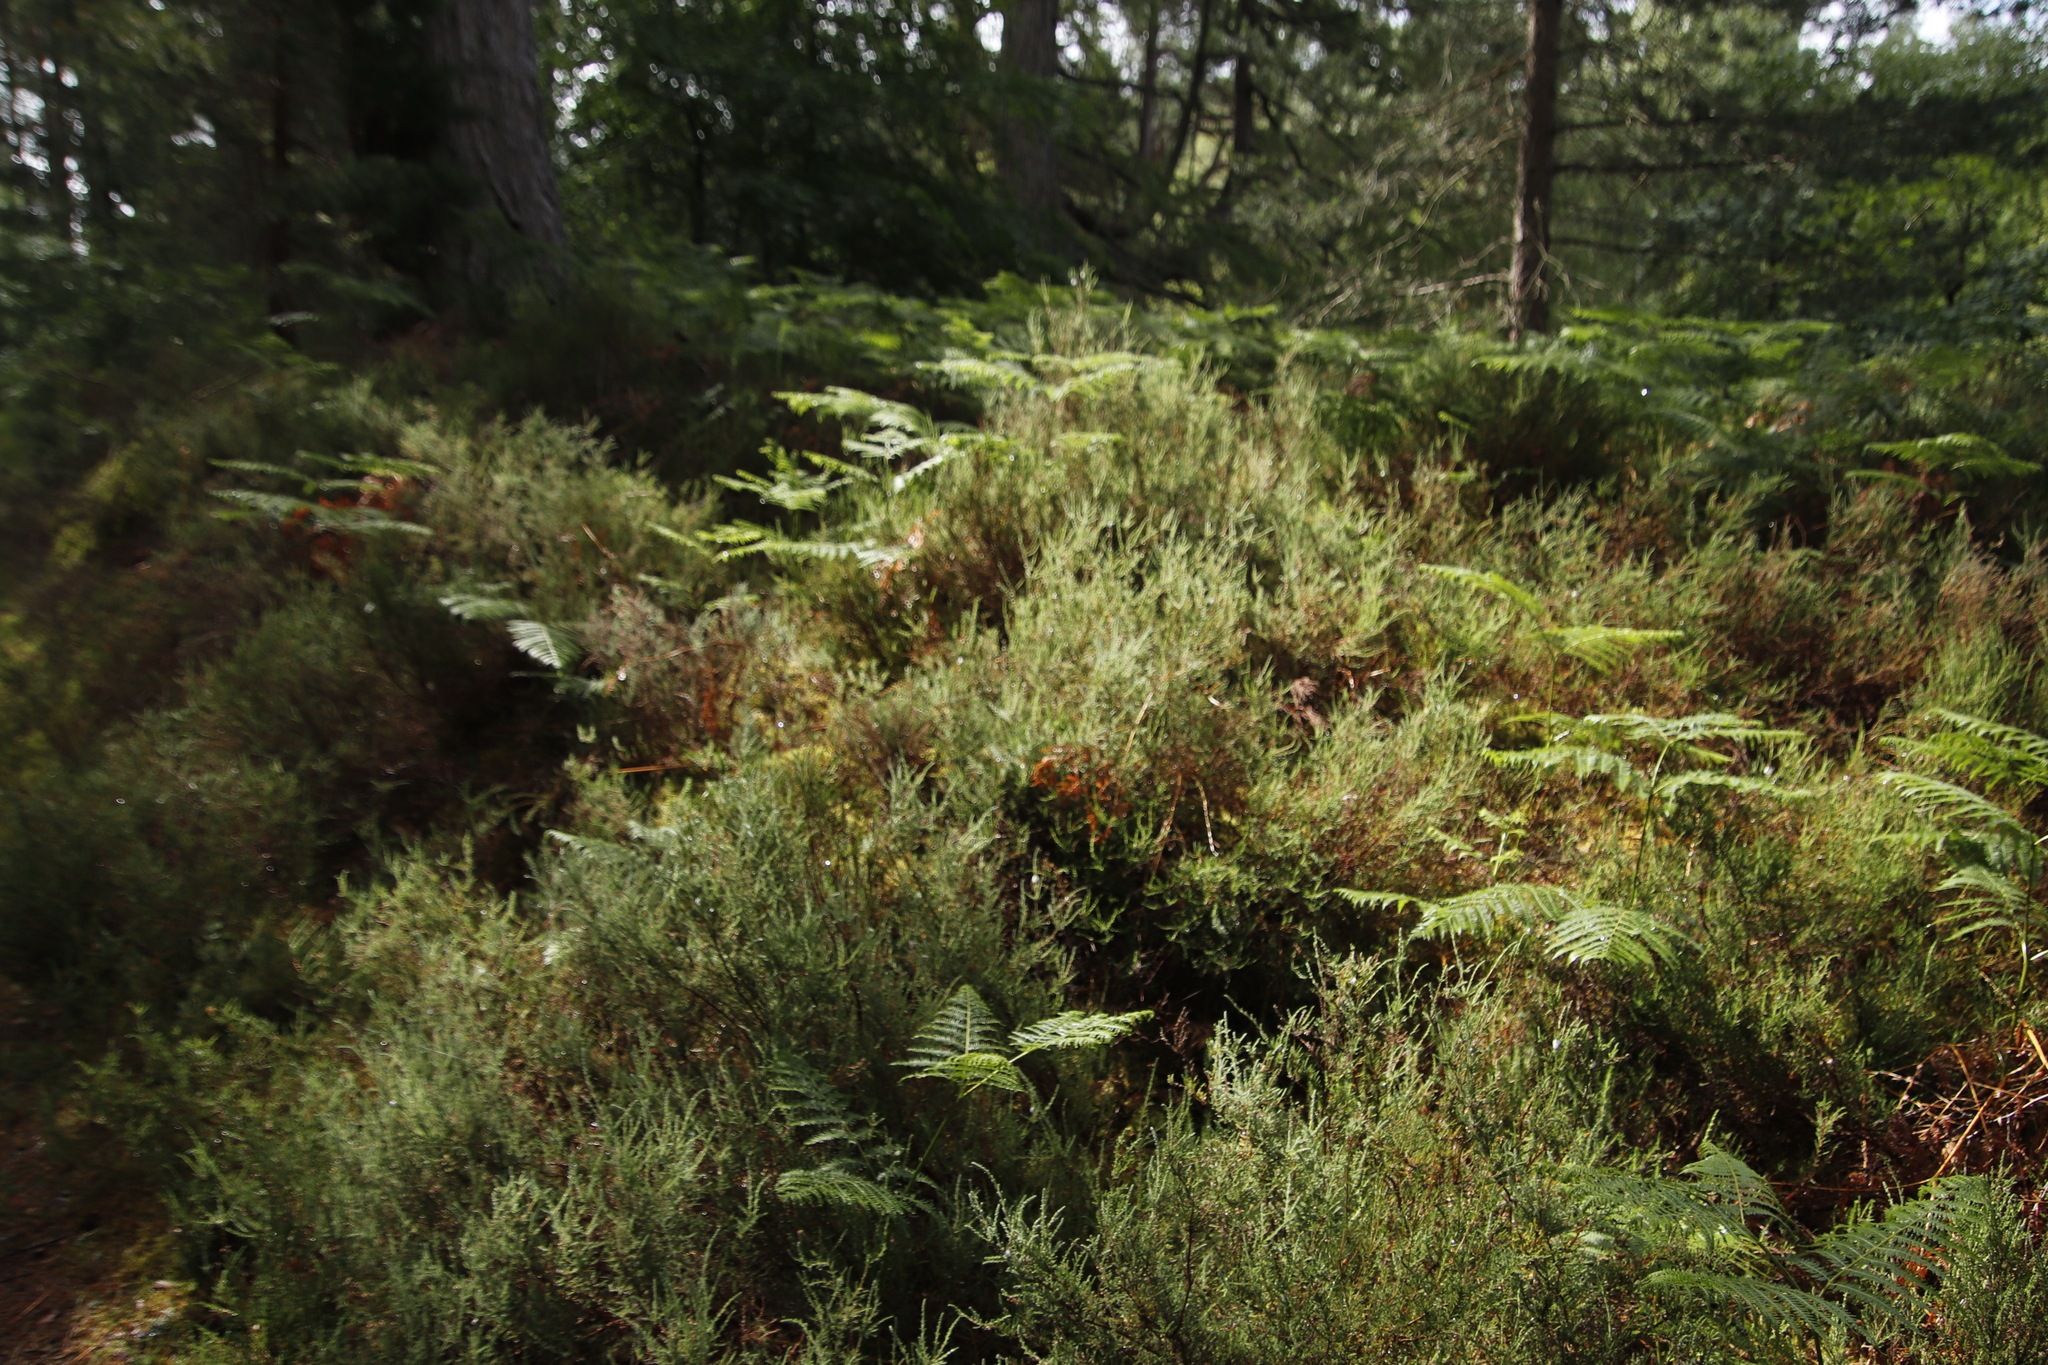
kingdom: Plantae
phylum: Tracheophyta
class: Magnoliopsida
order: Ericales
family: Ericaceae
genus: Calluna
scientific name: Calluna vulgaris
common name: Heather
